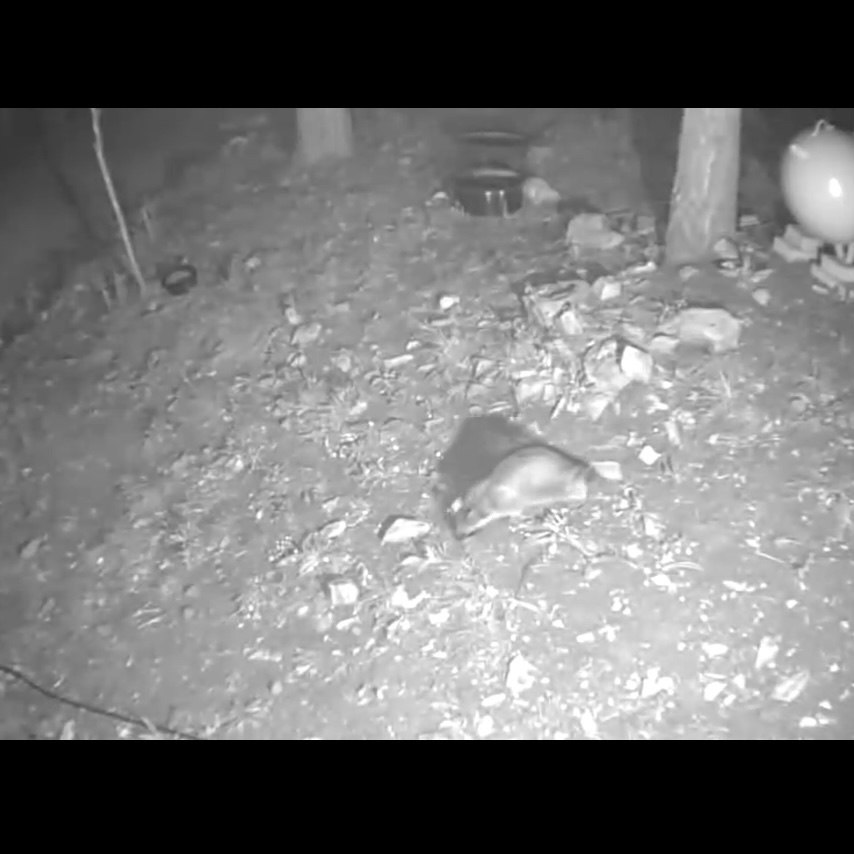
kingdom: Animalia
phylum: Chordata
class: Mammalia
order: Carnivora
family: Procyonidae
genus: Procyon
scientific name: Procyon lotor
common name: Raccoon
